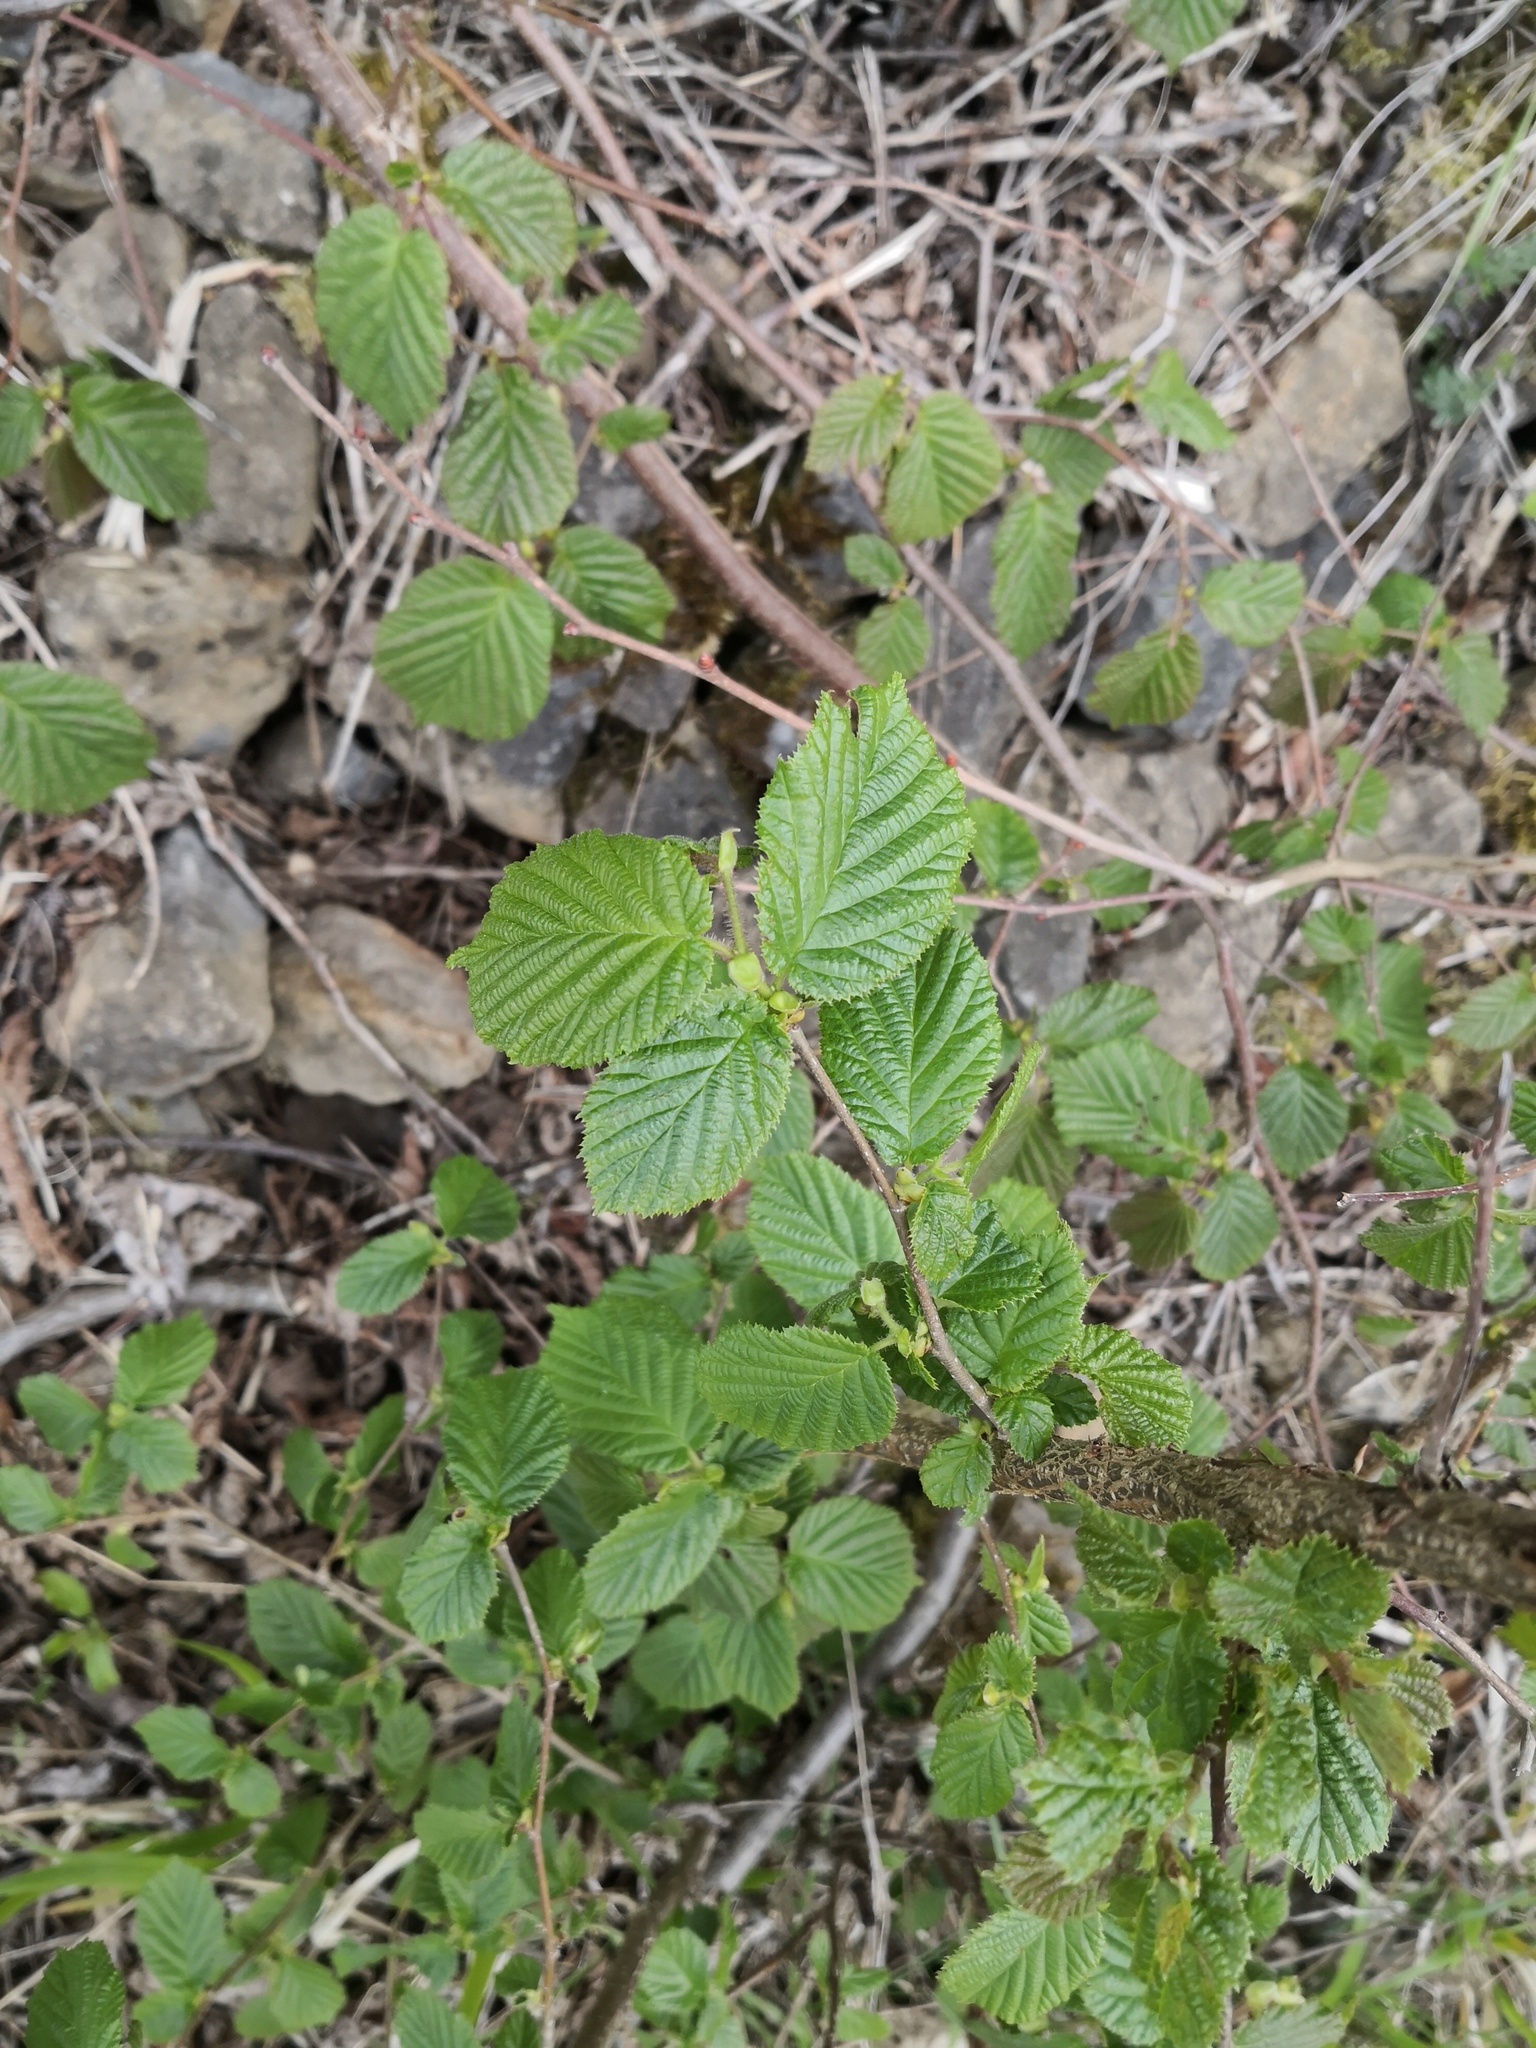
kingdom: Plantae
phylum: Tracheophyta
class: Magnoliopsida
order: Fagales
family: Betulaceae
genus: Corylus
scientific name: Corylus avellana
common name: European hazel
